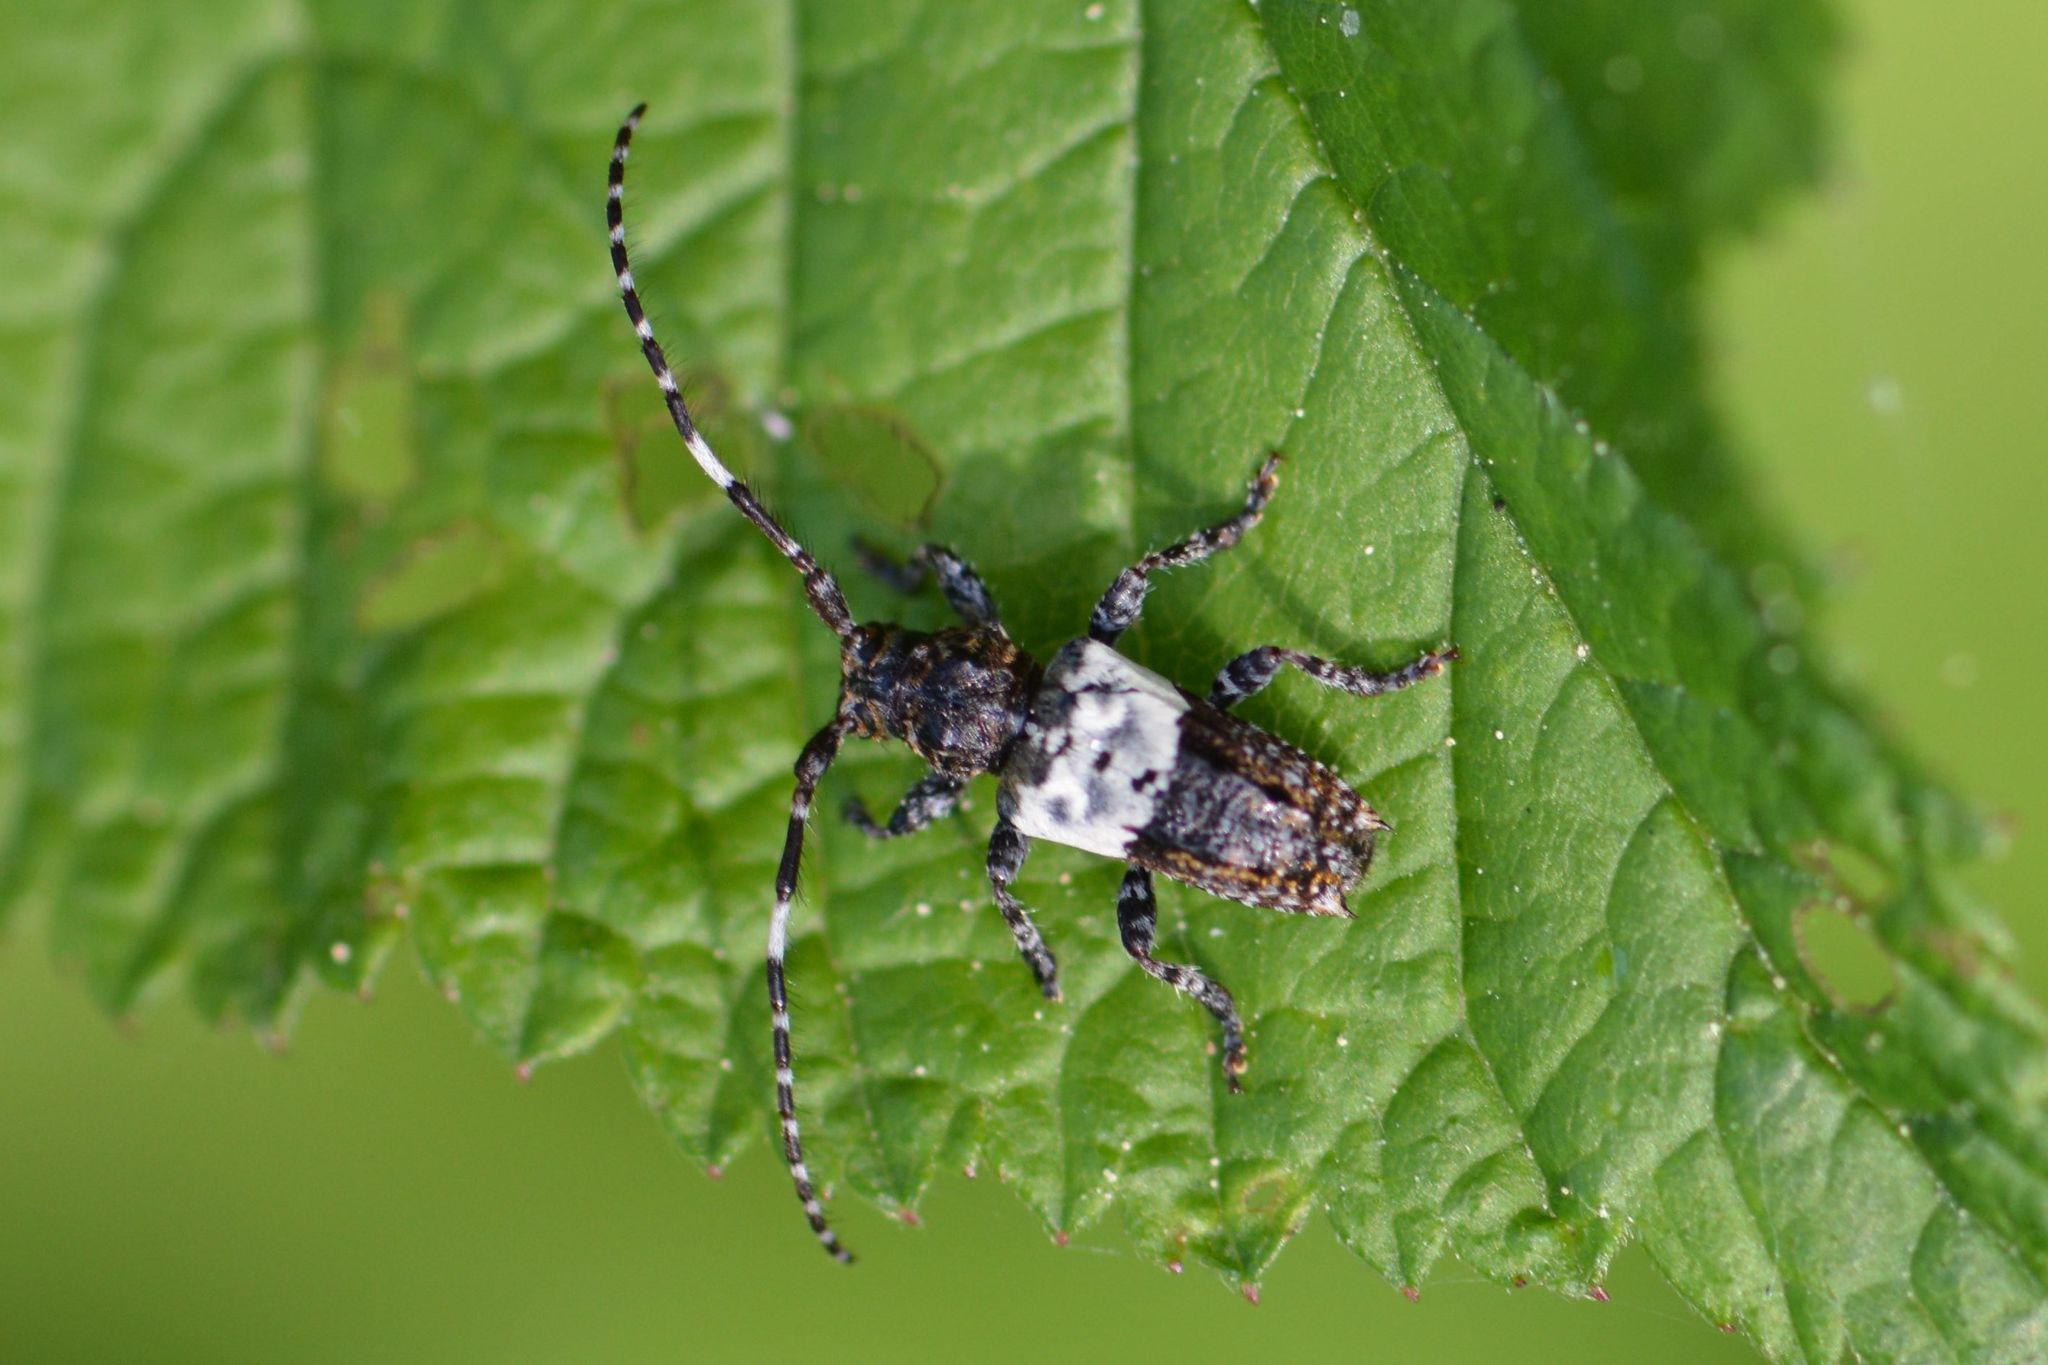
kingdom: Animalia
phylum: Arthropoda
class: Insecta
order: Coleoptera
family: Cerambycidae
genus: Pogonocherus
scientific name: Pogonocherus hispidulus
